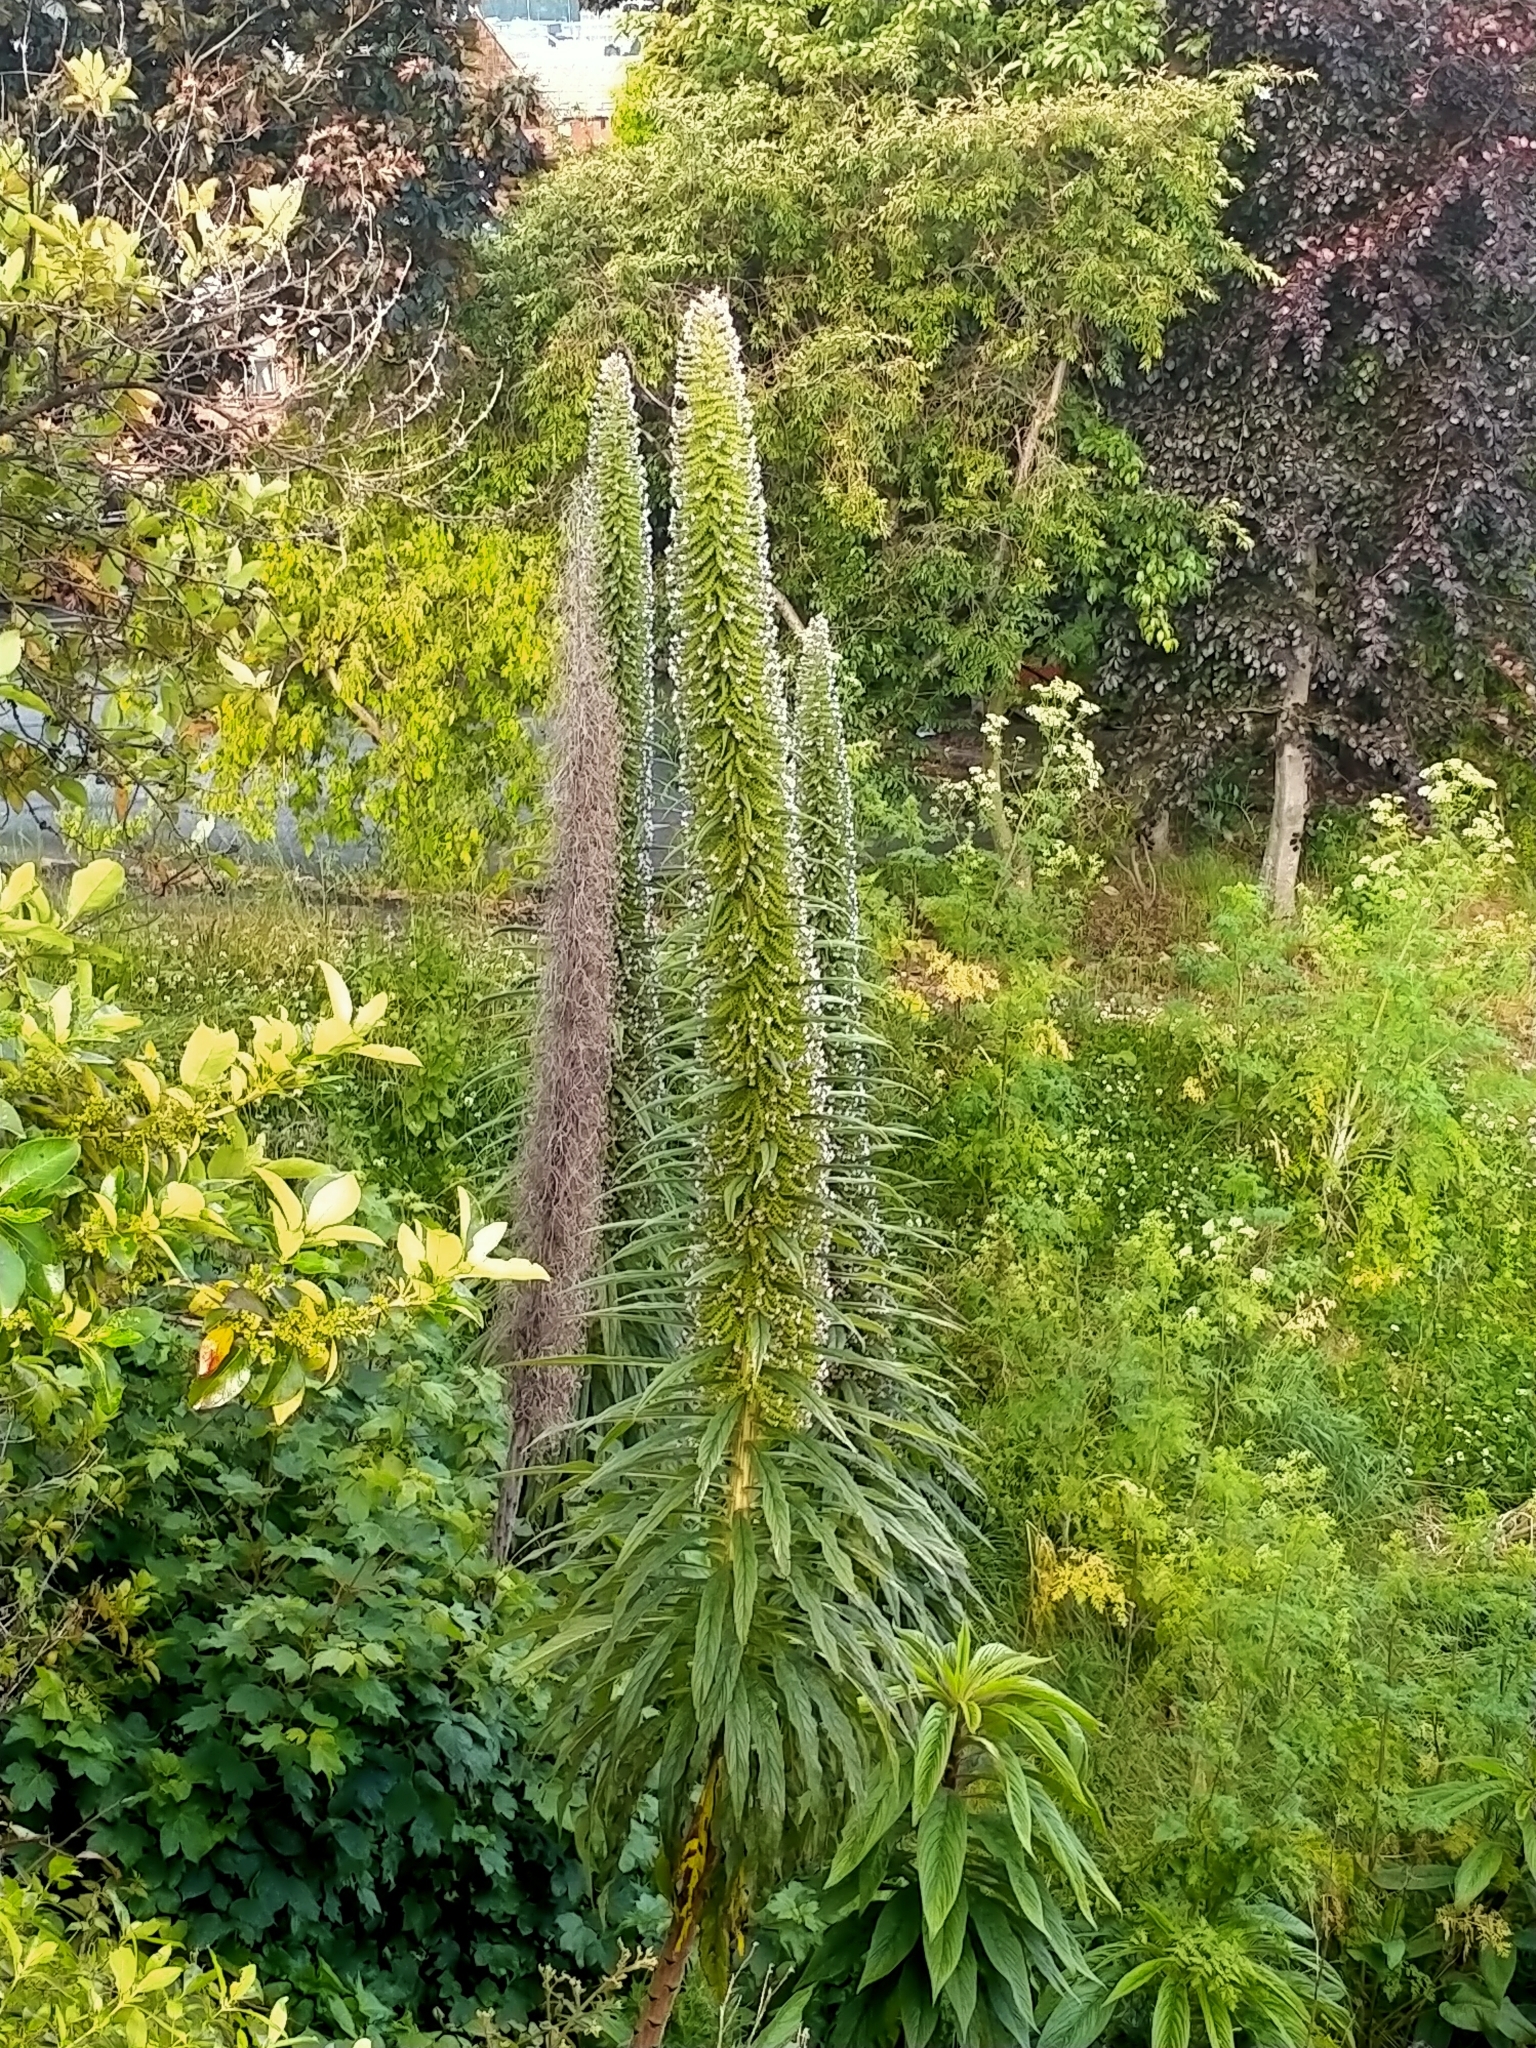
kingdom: Plantae
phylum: Tracheophyta
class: Magnoliopsida
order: Boraginales
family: Boraginaceae
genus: Echium
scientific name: Echium pininana
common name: Giant viper's-bugloss
